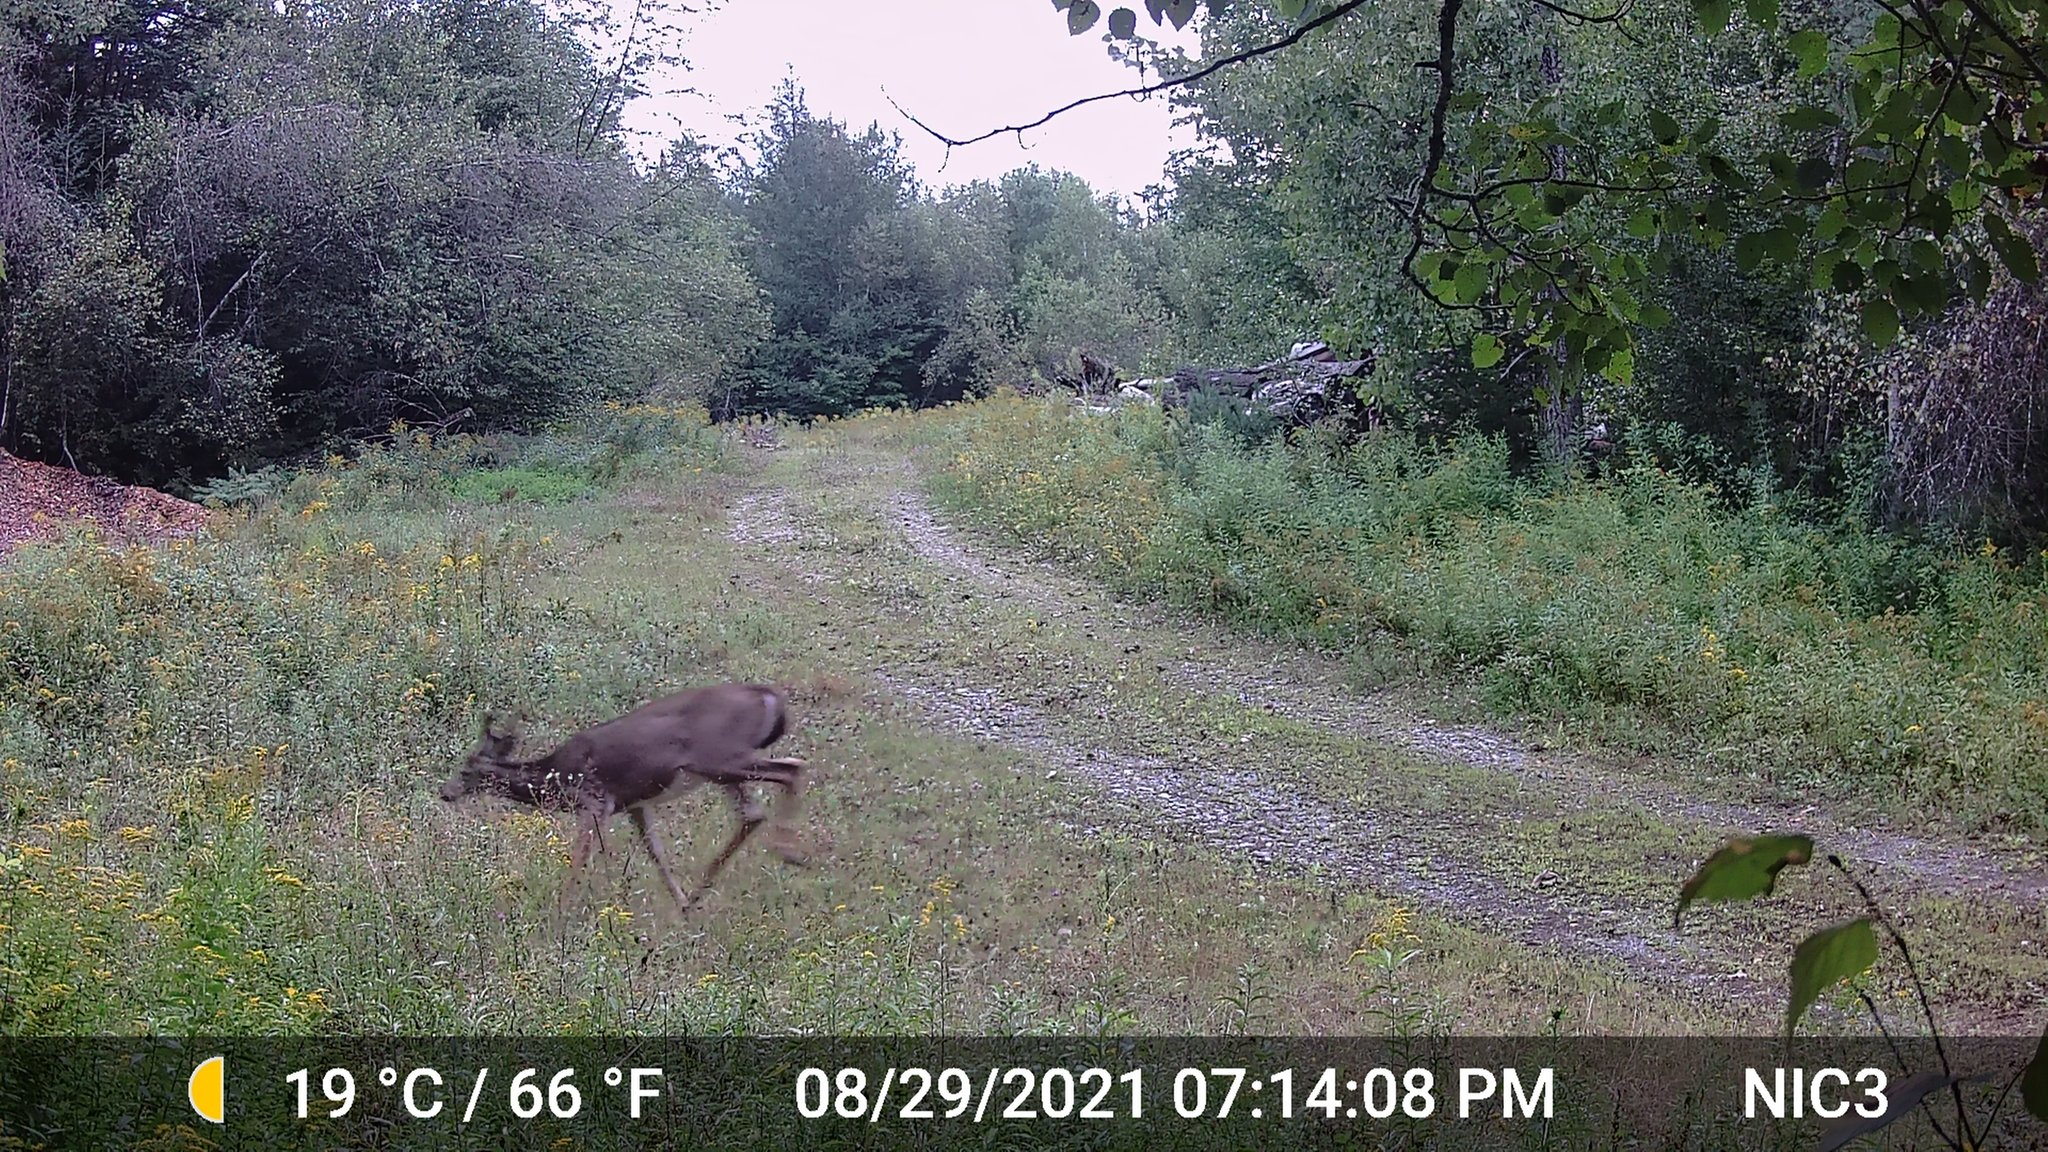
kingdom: Animalia
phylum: Chordata
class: Mammalia
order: Artiodactyla
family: Cervidae
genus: Odocoileus
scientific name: Odocoileus virginianus
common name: White-tailed deer
